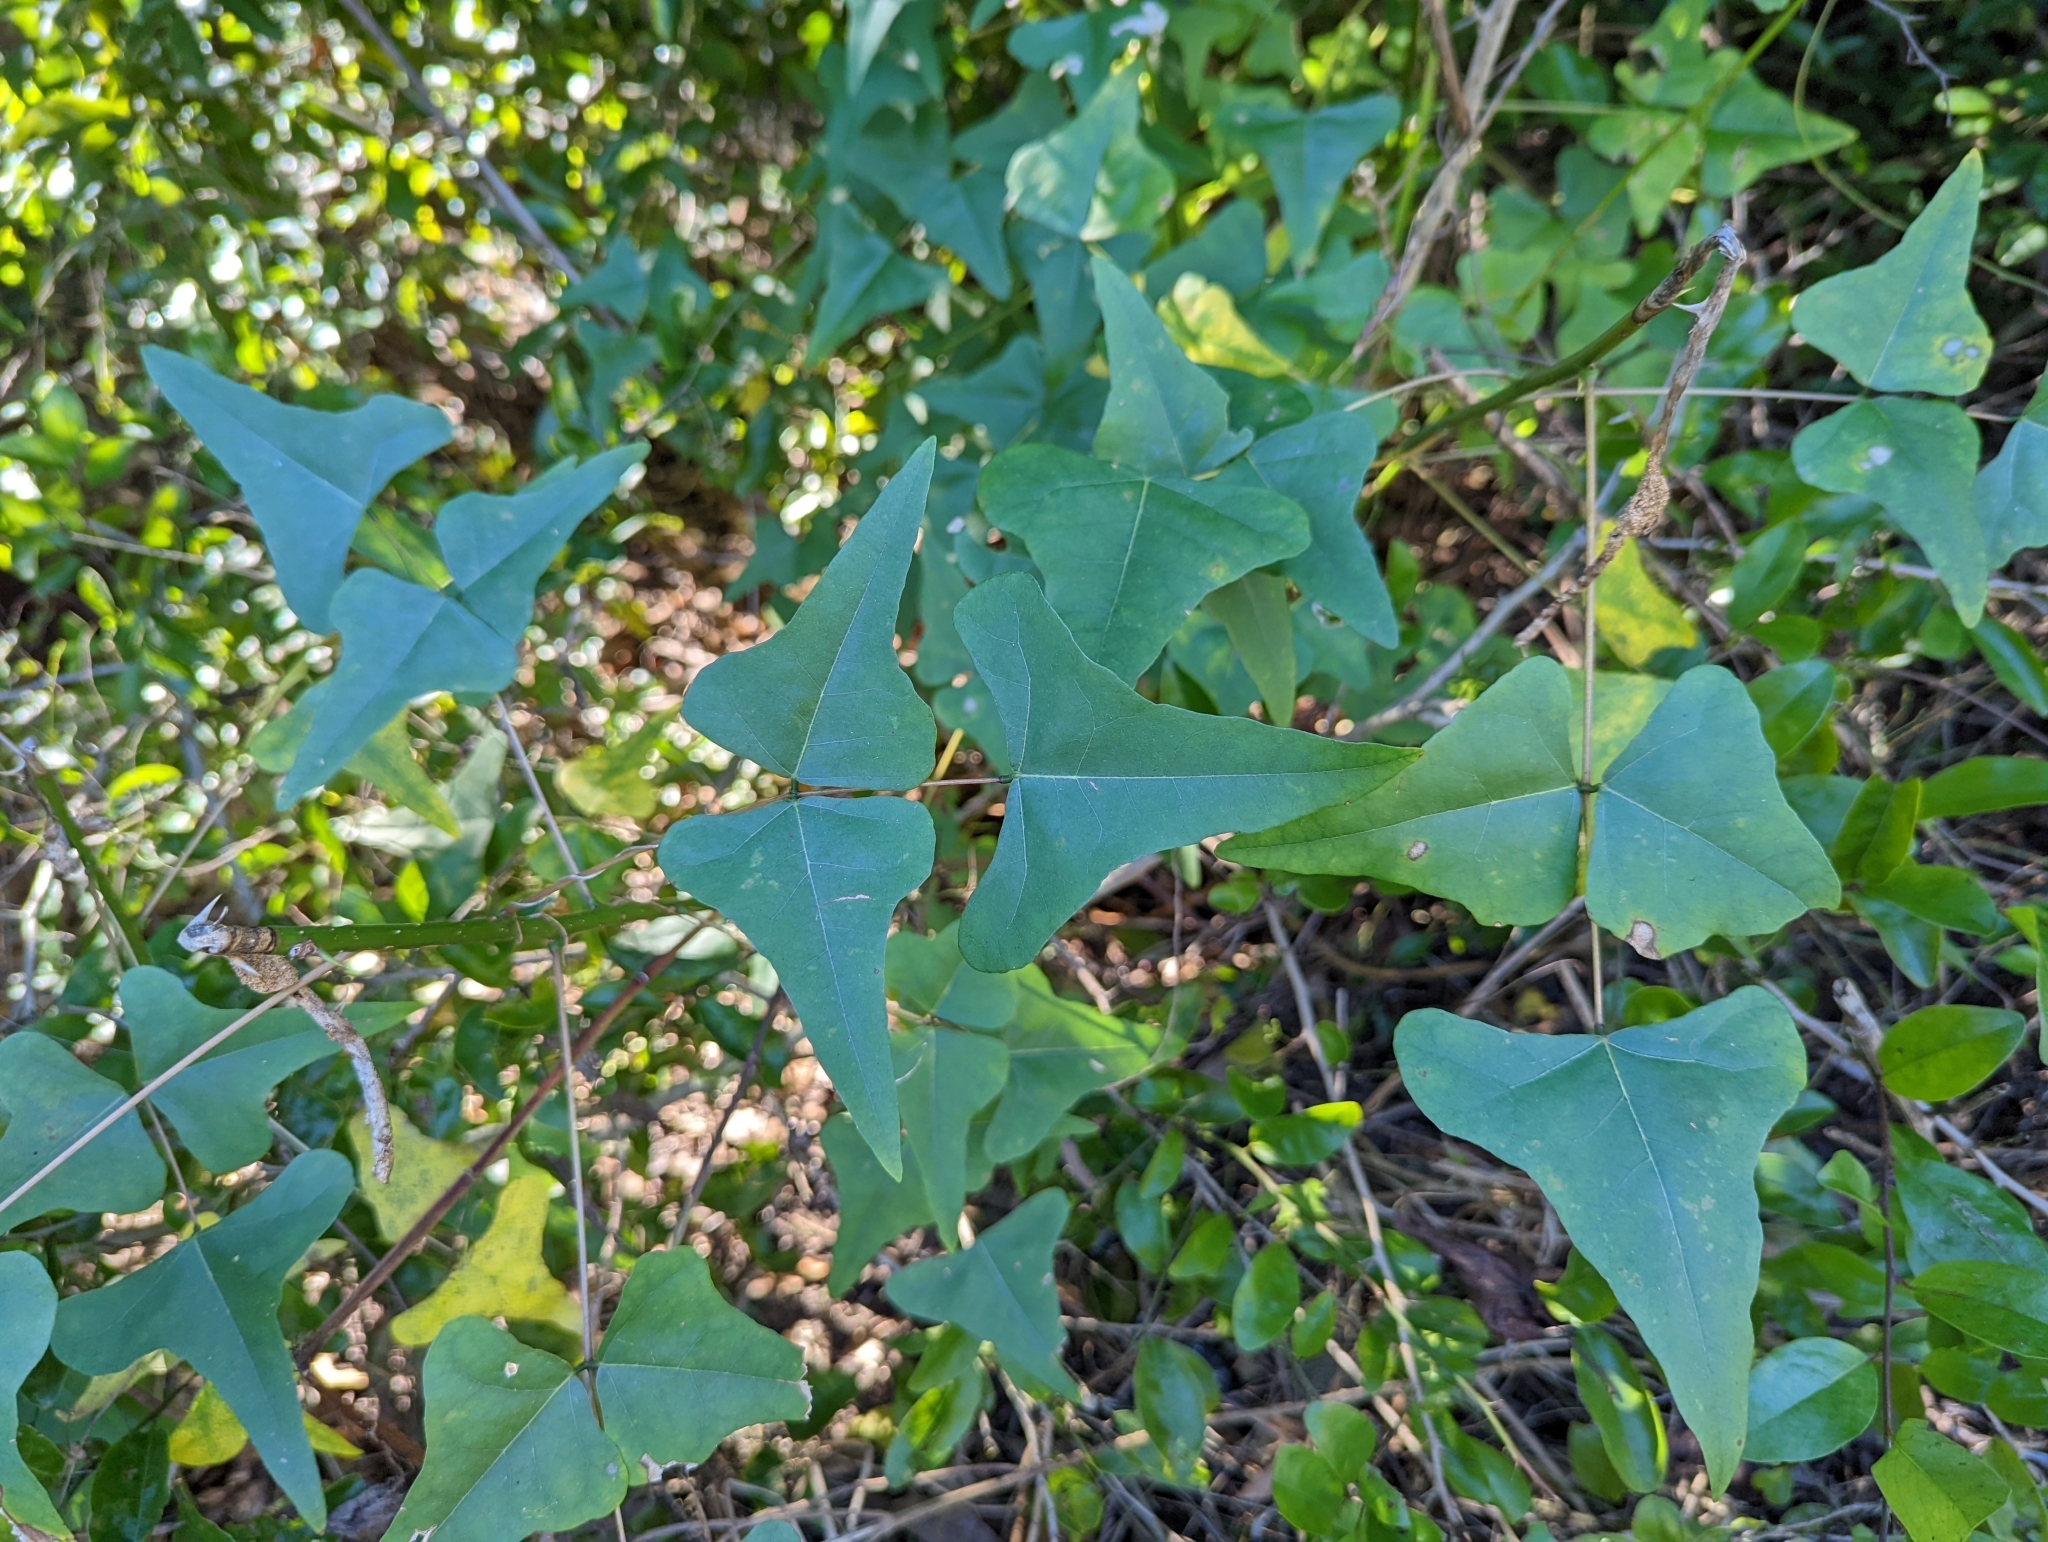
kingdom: Plantae
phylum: Tracheophyta
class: Magnoliopsida
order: Fabales
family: Fabaceae
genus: Erythrina
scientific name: Erythrina herbacea
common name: Coral-bean
